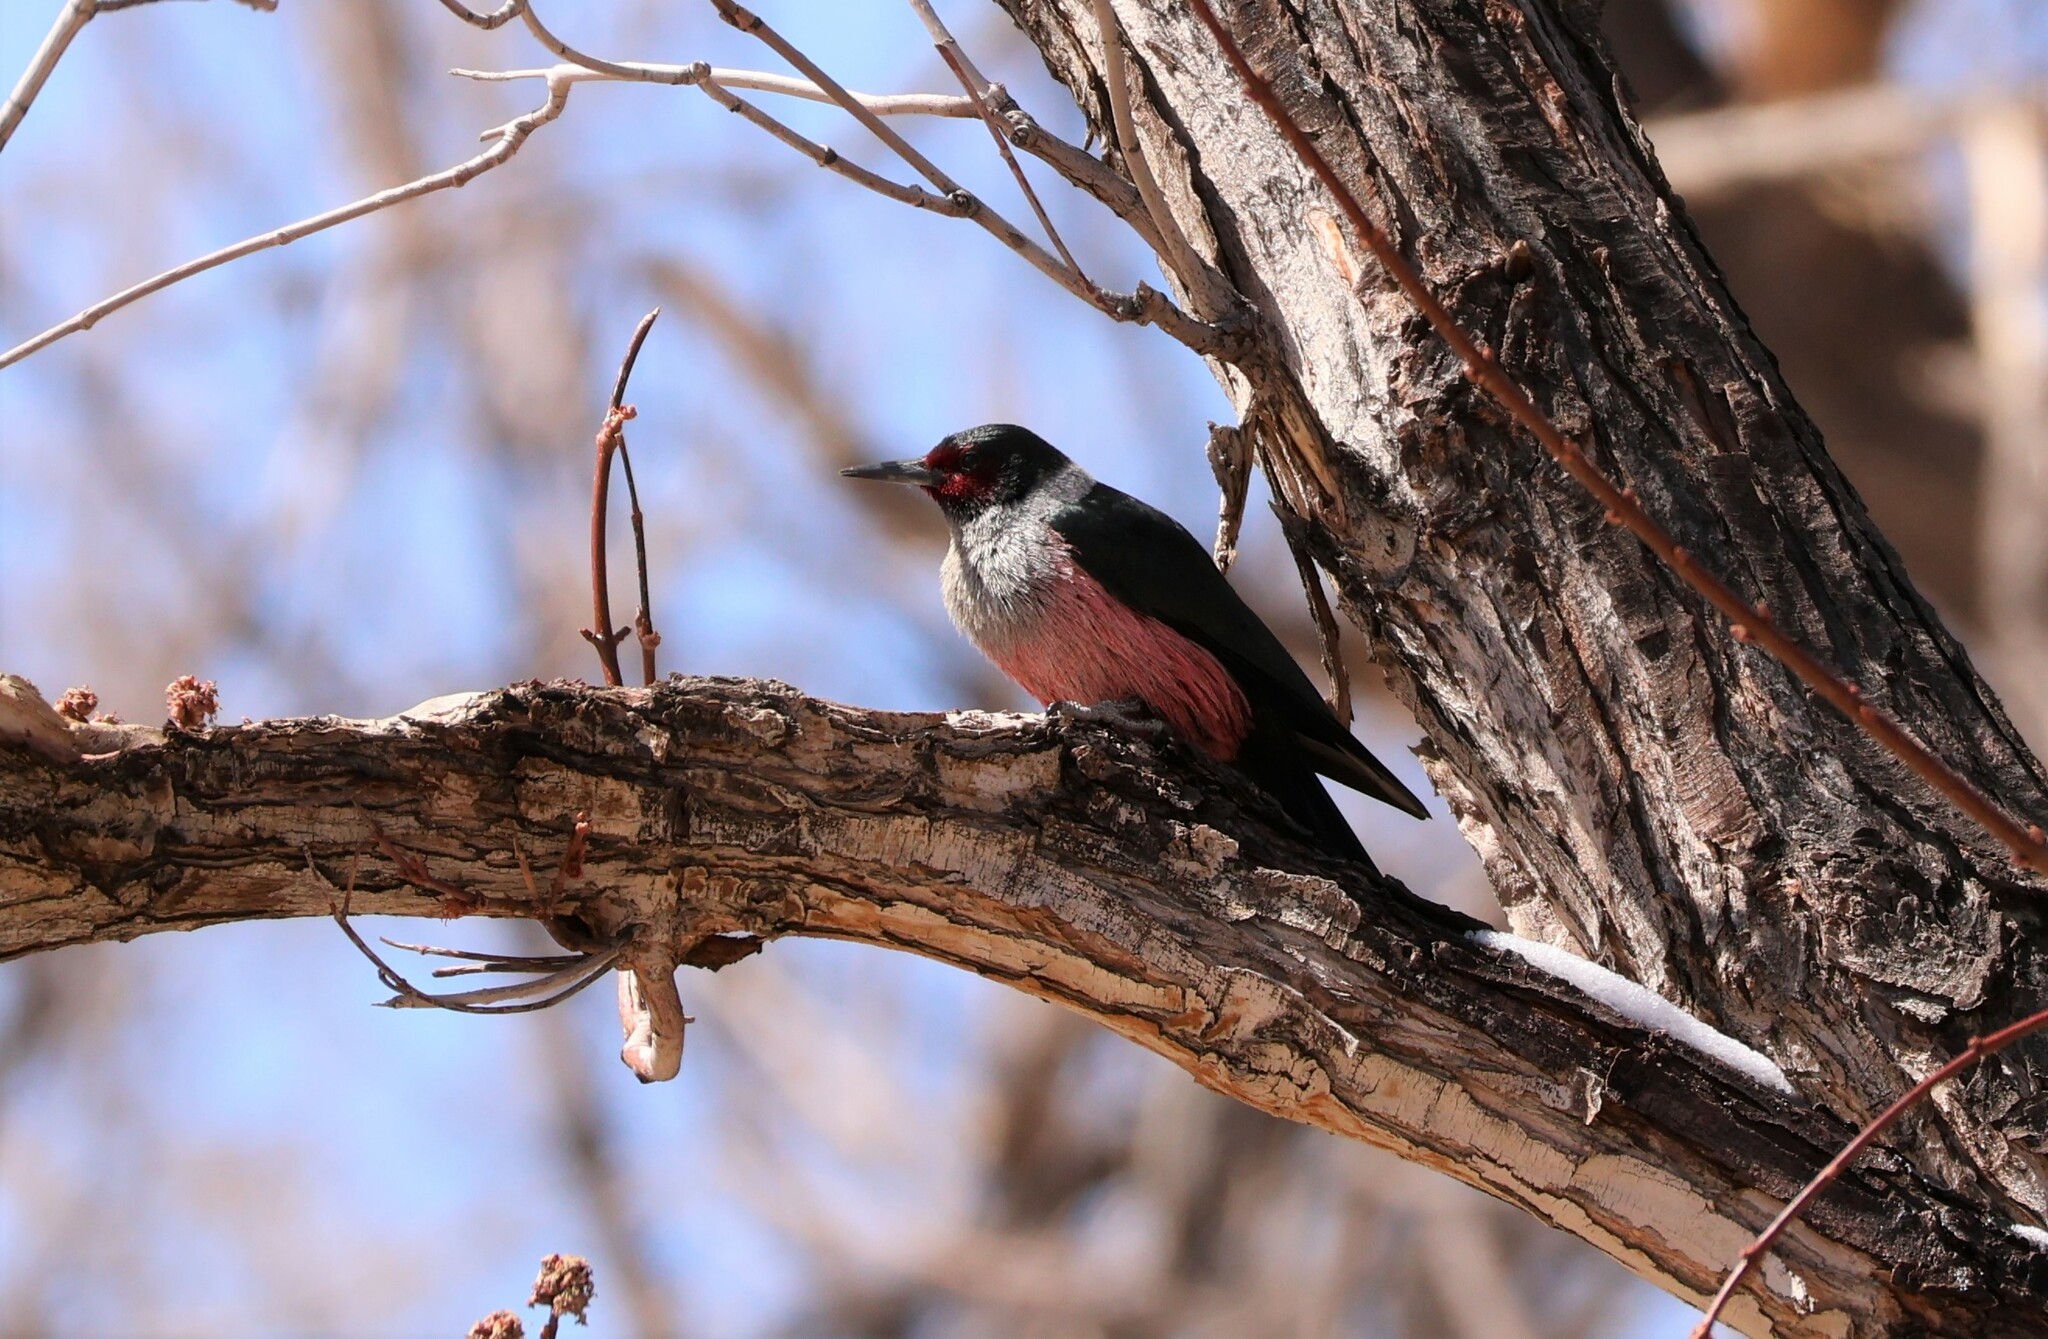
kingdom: Animalia
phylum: Chordata
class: Aves
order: Piciformes
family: Picidae
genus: Melanerpes
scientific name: Melanerpes lewis
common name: Lewis's woodpecker
